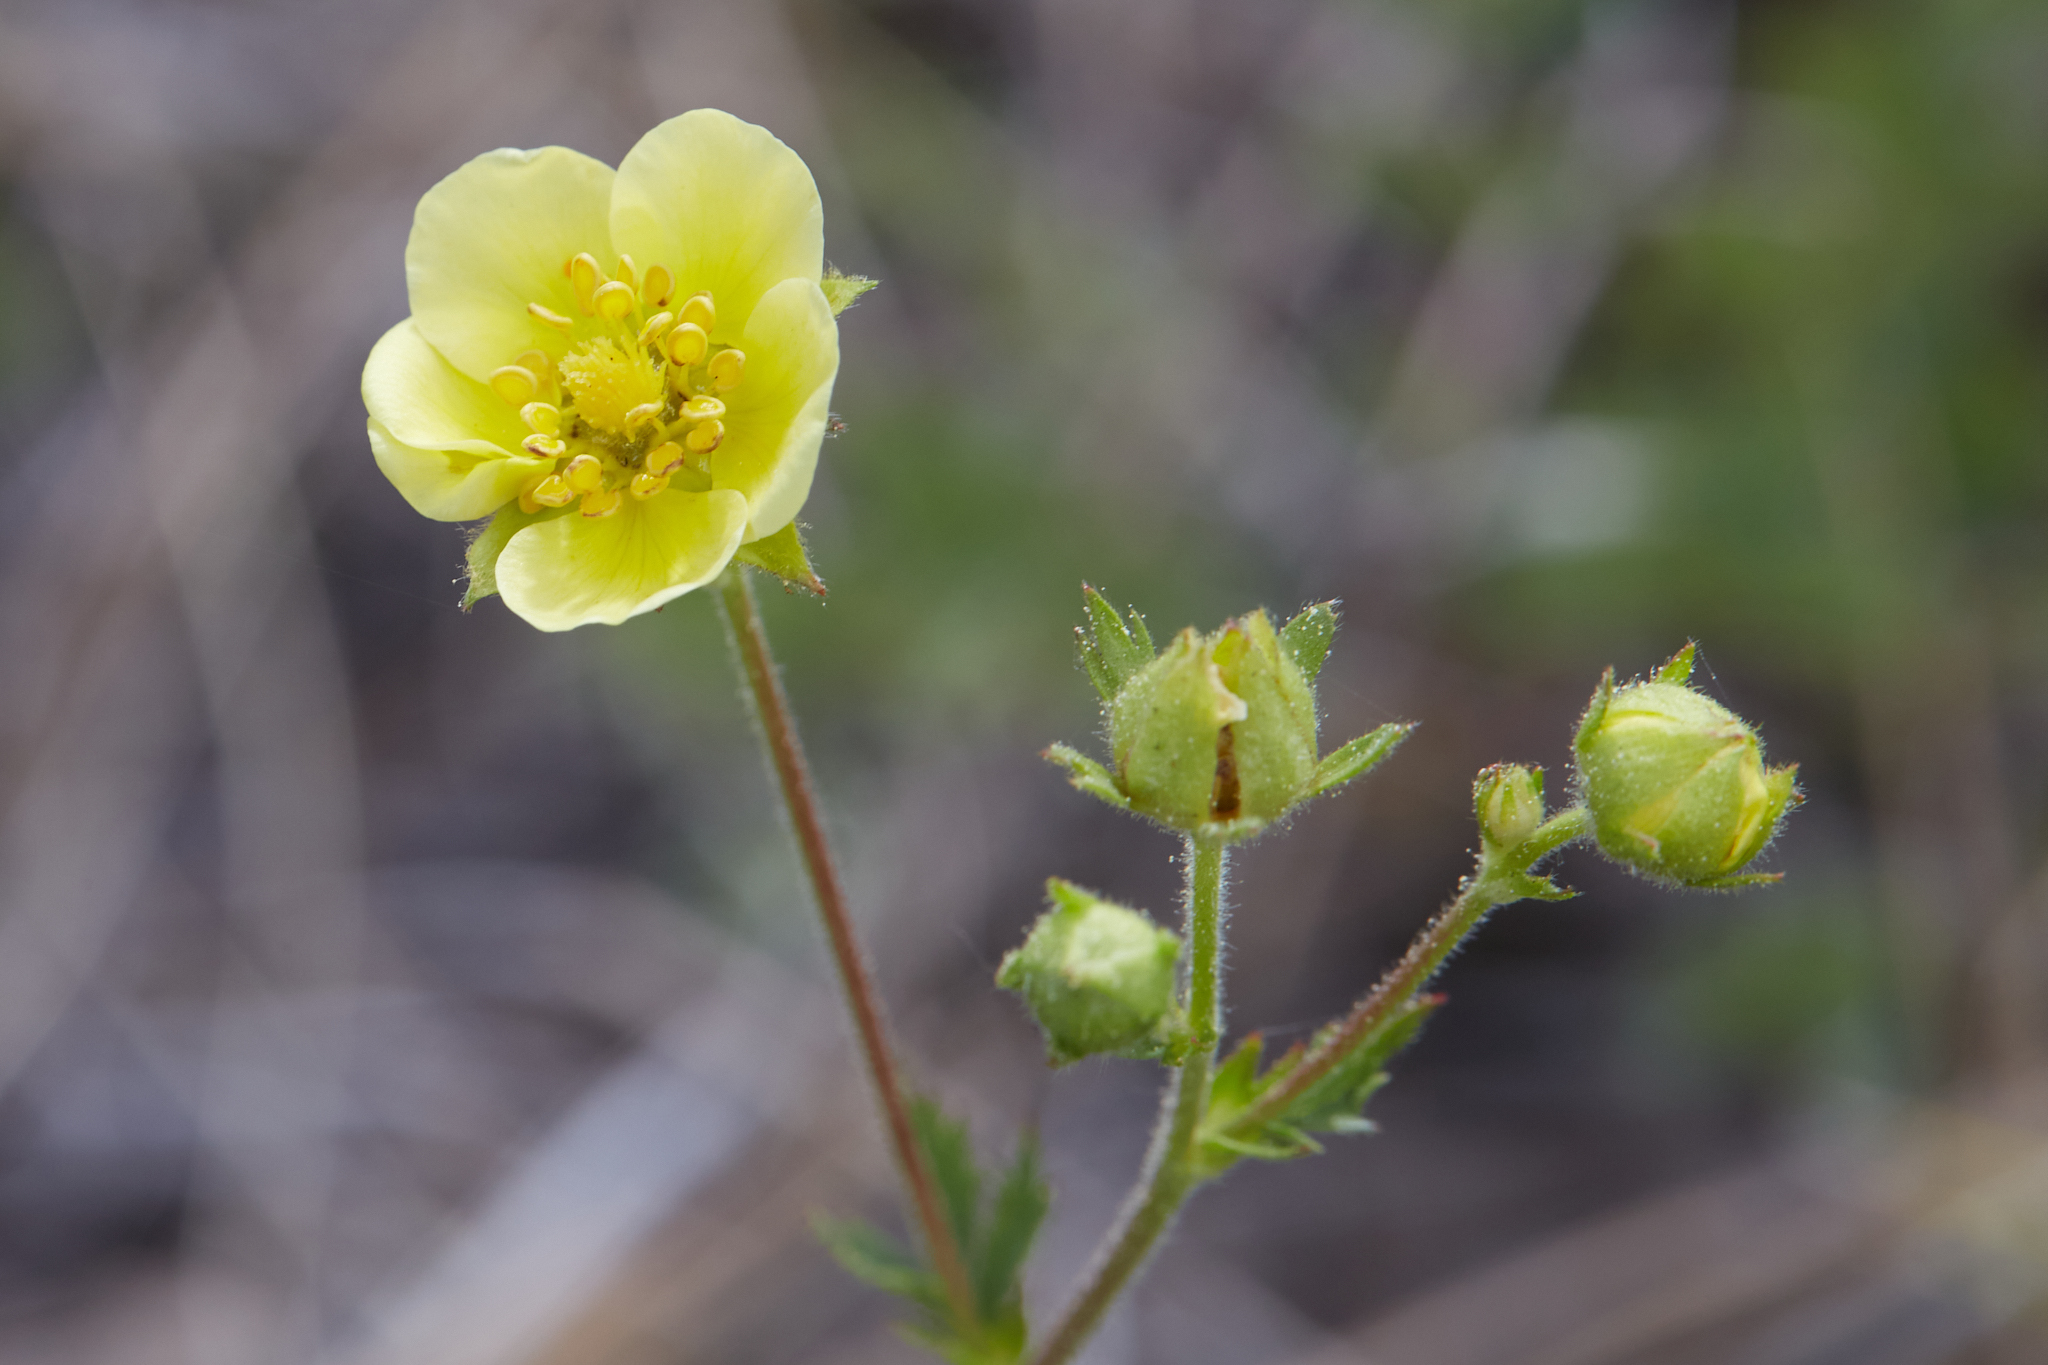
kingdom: Plantae
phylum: Tracheophyta
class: Magnoliopsida
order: Rosales
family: Rosaceae
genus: Drymocallis
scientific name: Drymocallis lactea
